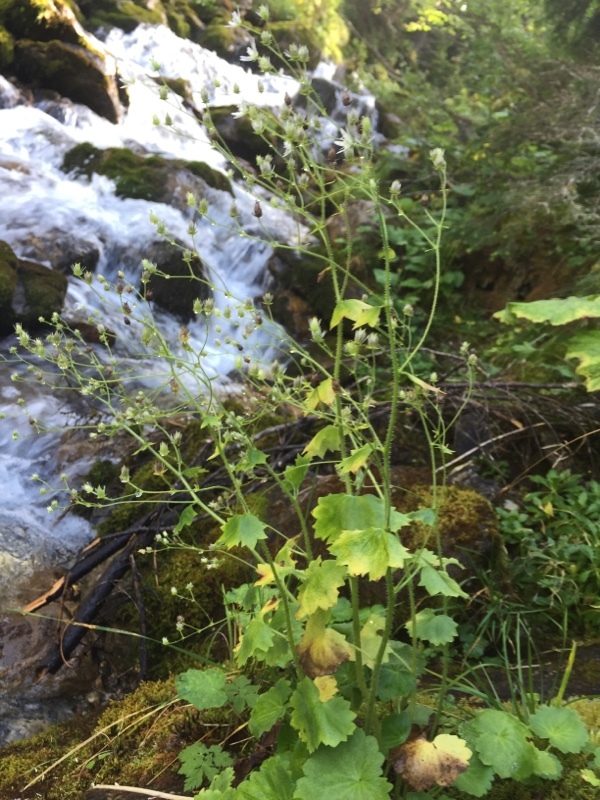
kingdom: Plantae
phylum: Tracheophyta
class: Magnoliopsida
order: Saxifragales
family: Saxifragaceae
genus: Saxifraga
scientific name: Saxifraga rotundifolia
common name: Round-leaved saxifrage
